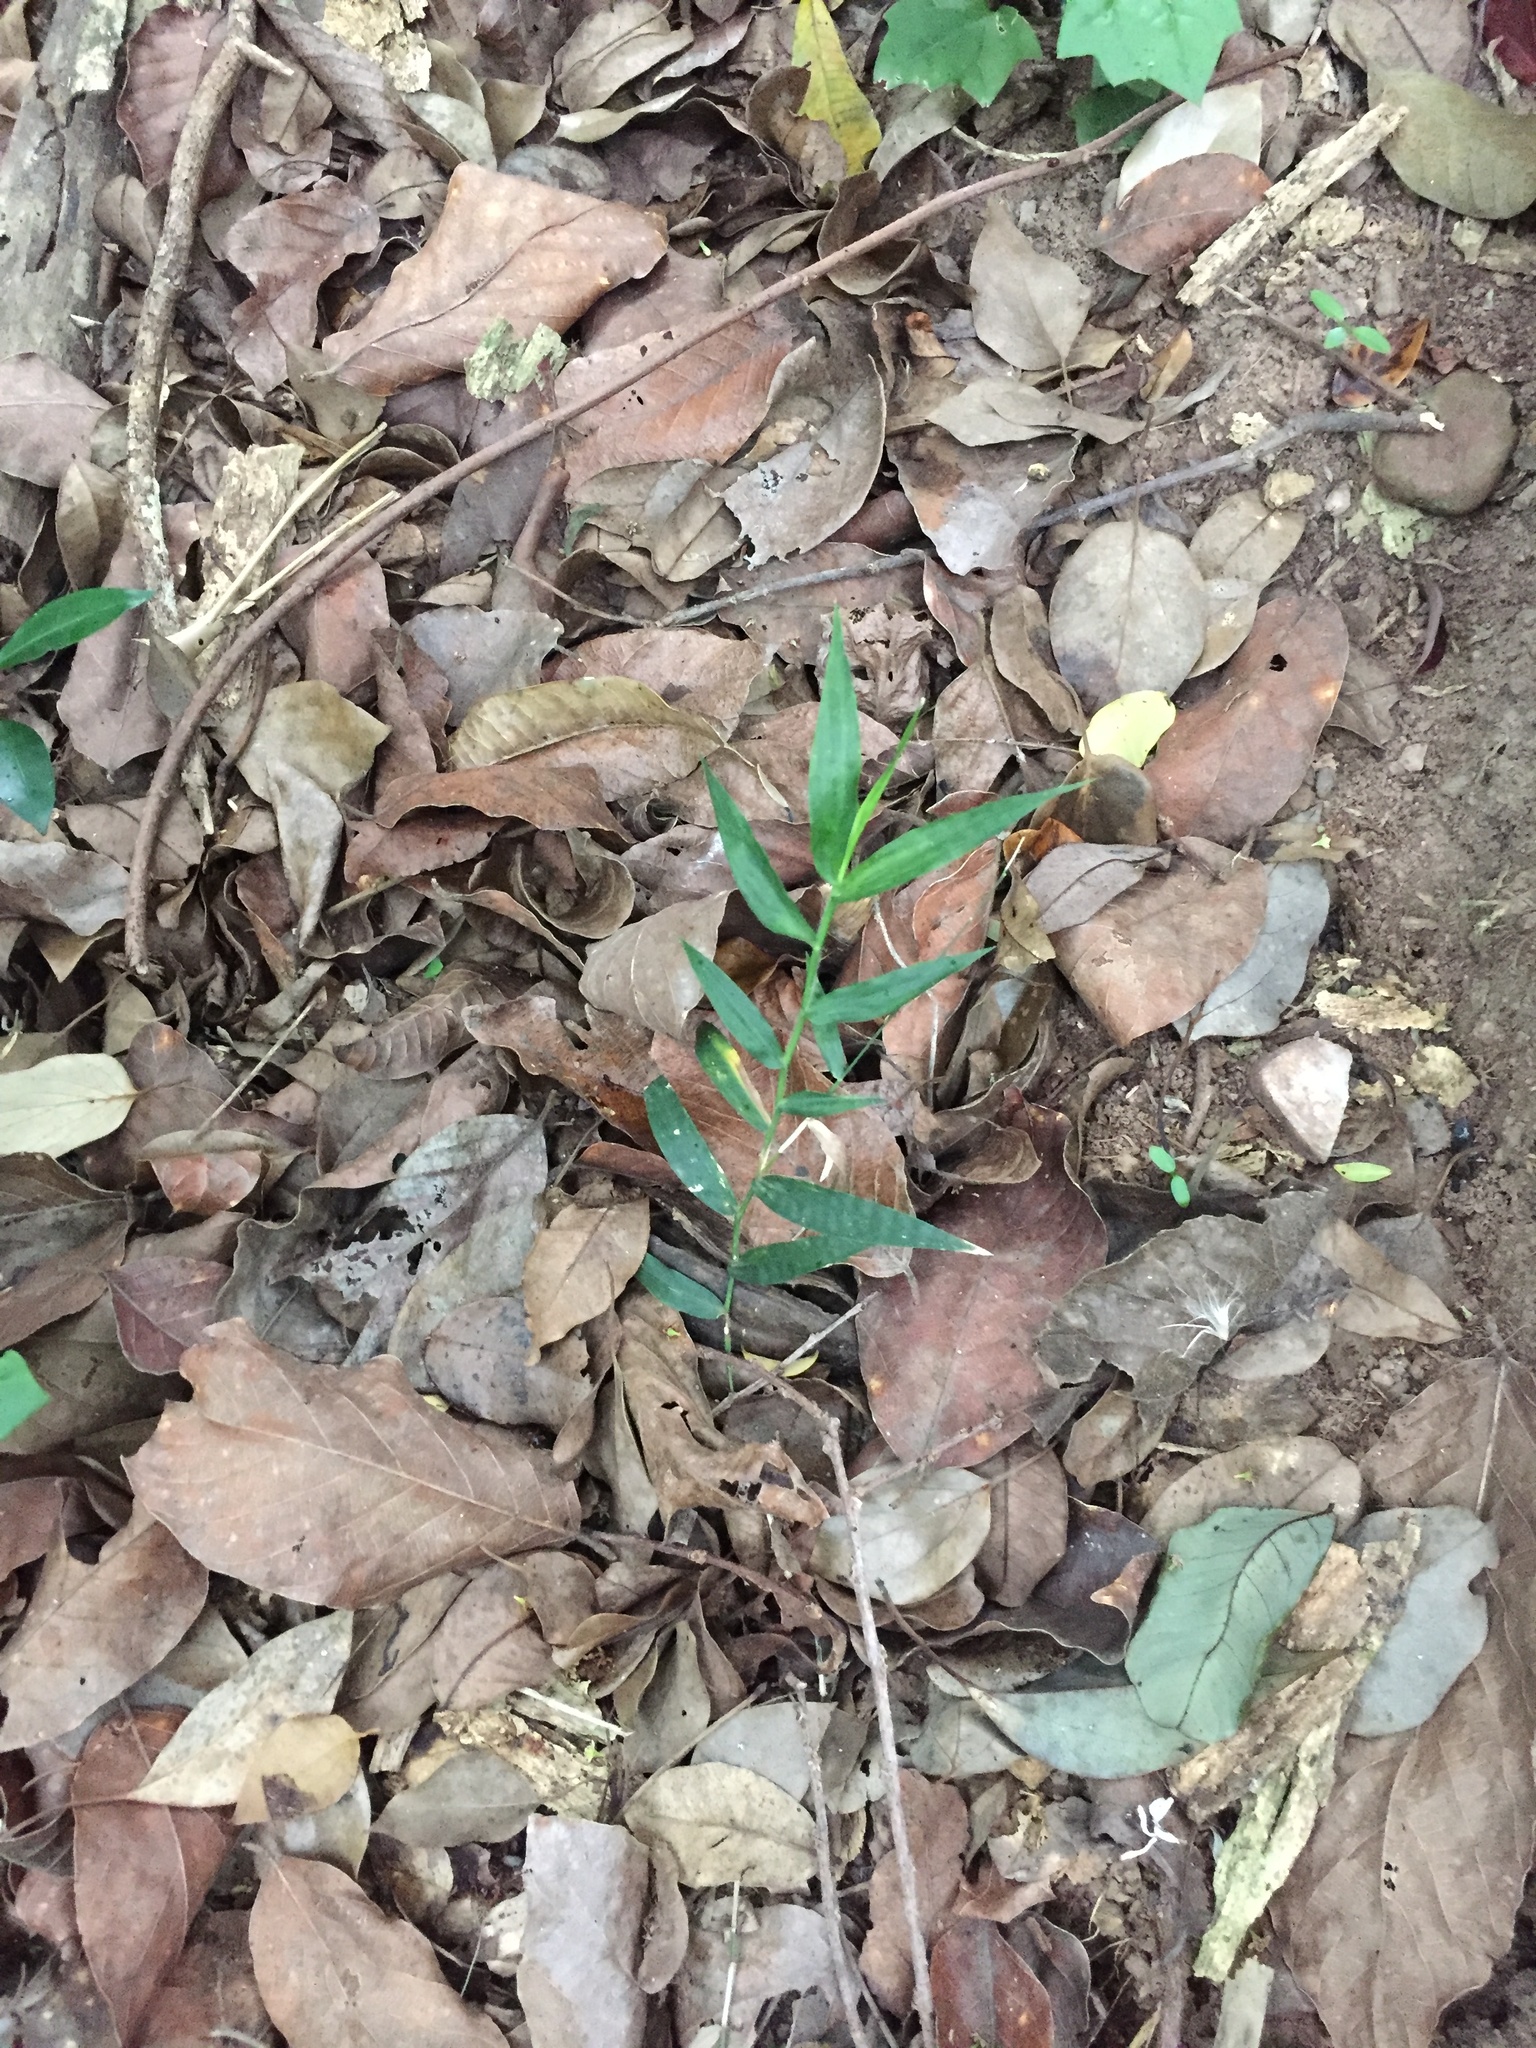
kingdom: Plantae
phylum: Tracheophyta
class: Liliopsida
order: Poales
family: Poaceae
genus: Oplismenus
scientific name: Oplismenus hirtellus
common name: Basketgrass
